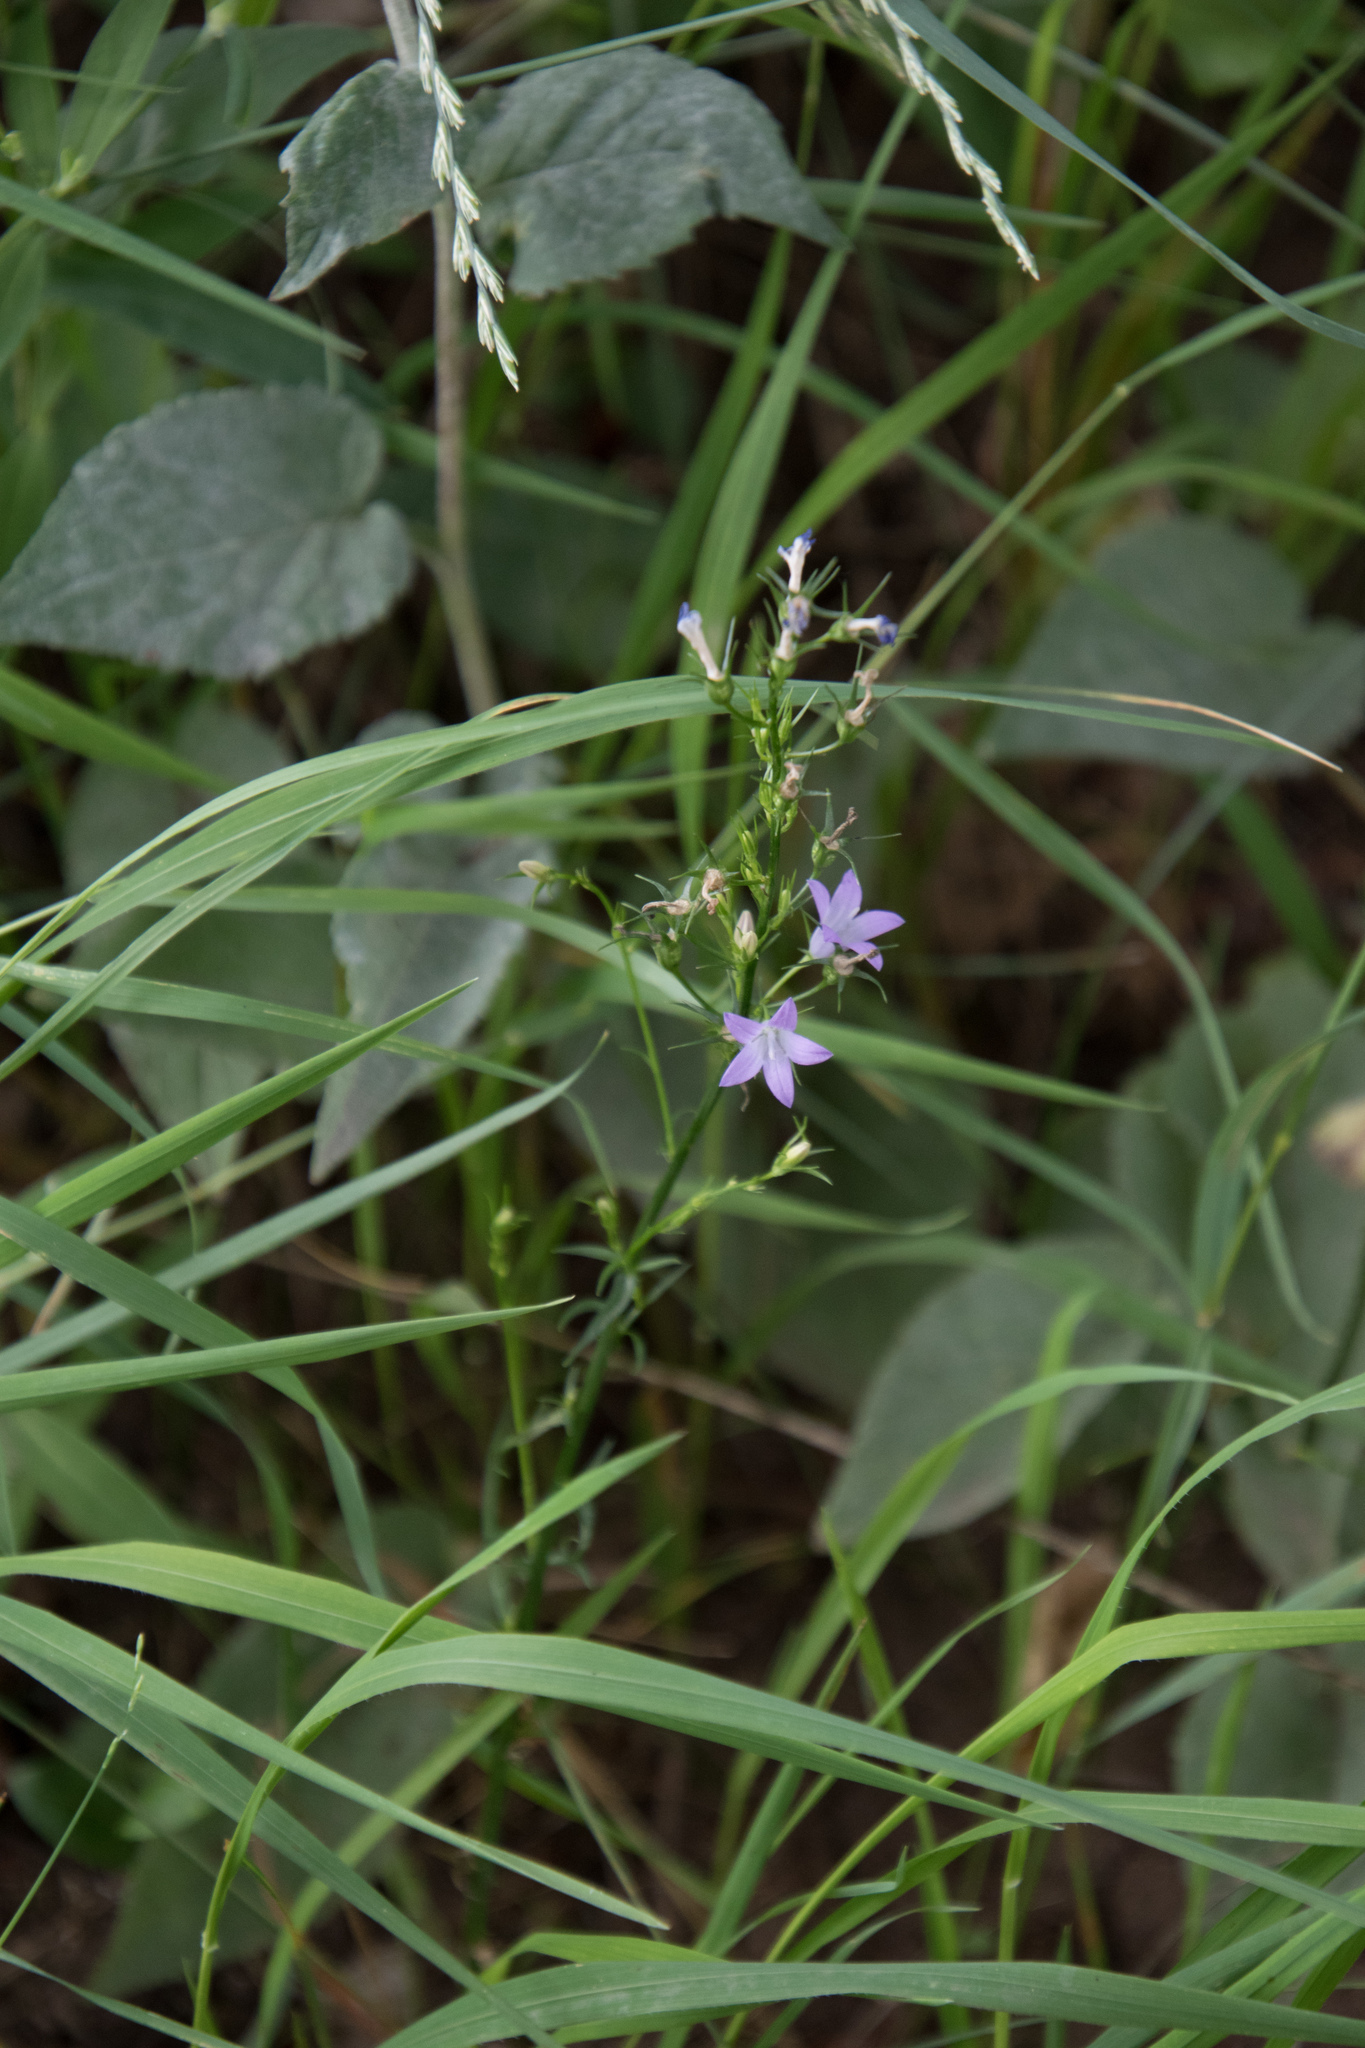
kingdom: Plantae
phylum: Tracheophyta
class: Magnoliopsida
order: Asterales
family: Campanulaceae
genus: Campanula
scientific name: Campanula rapunculus
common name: Rampion bellflower
